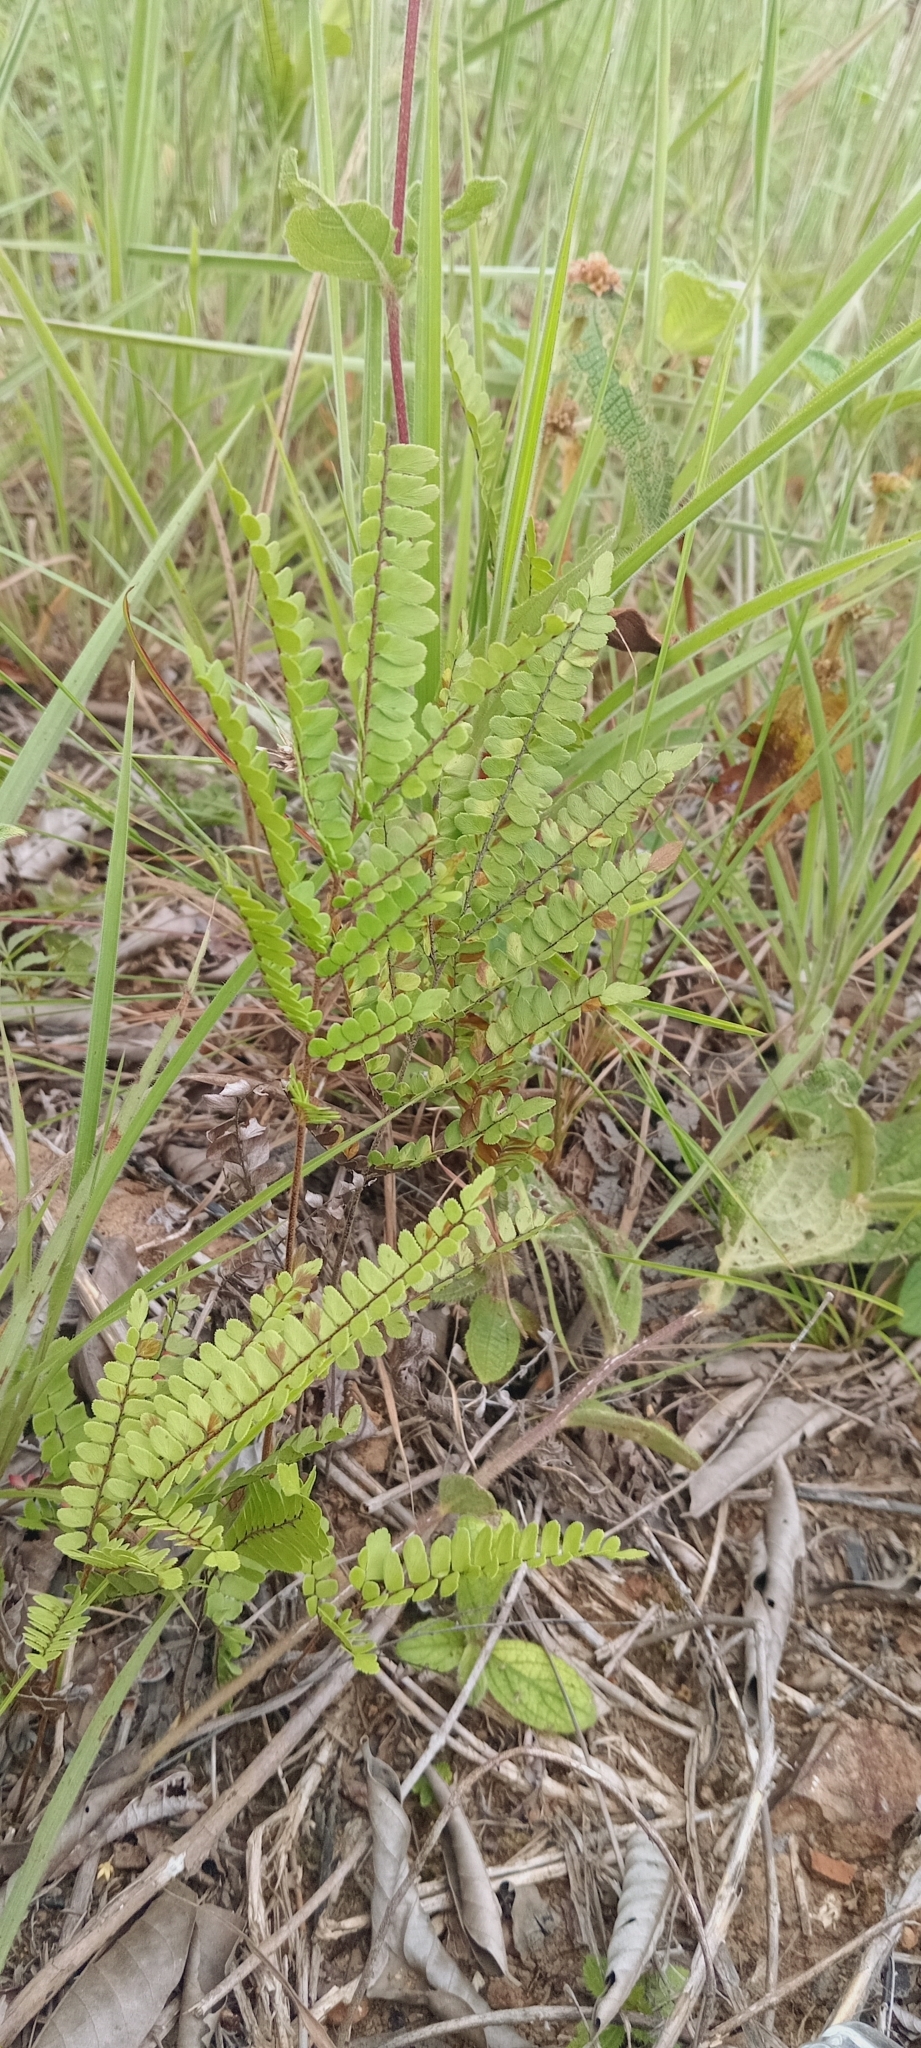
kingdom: Plantae
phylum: Tracheophyta
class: Polypodiopsida
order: Polypodiales
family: Pteridaceae
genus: Adiantum
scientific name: Adiantum serratodentatum
